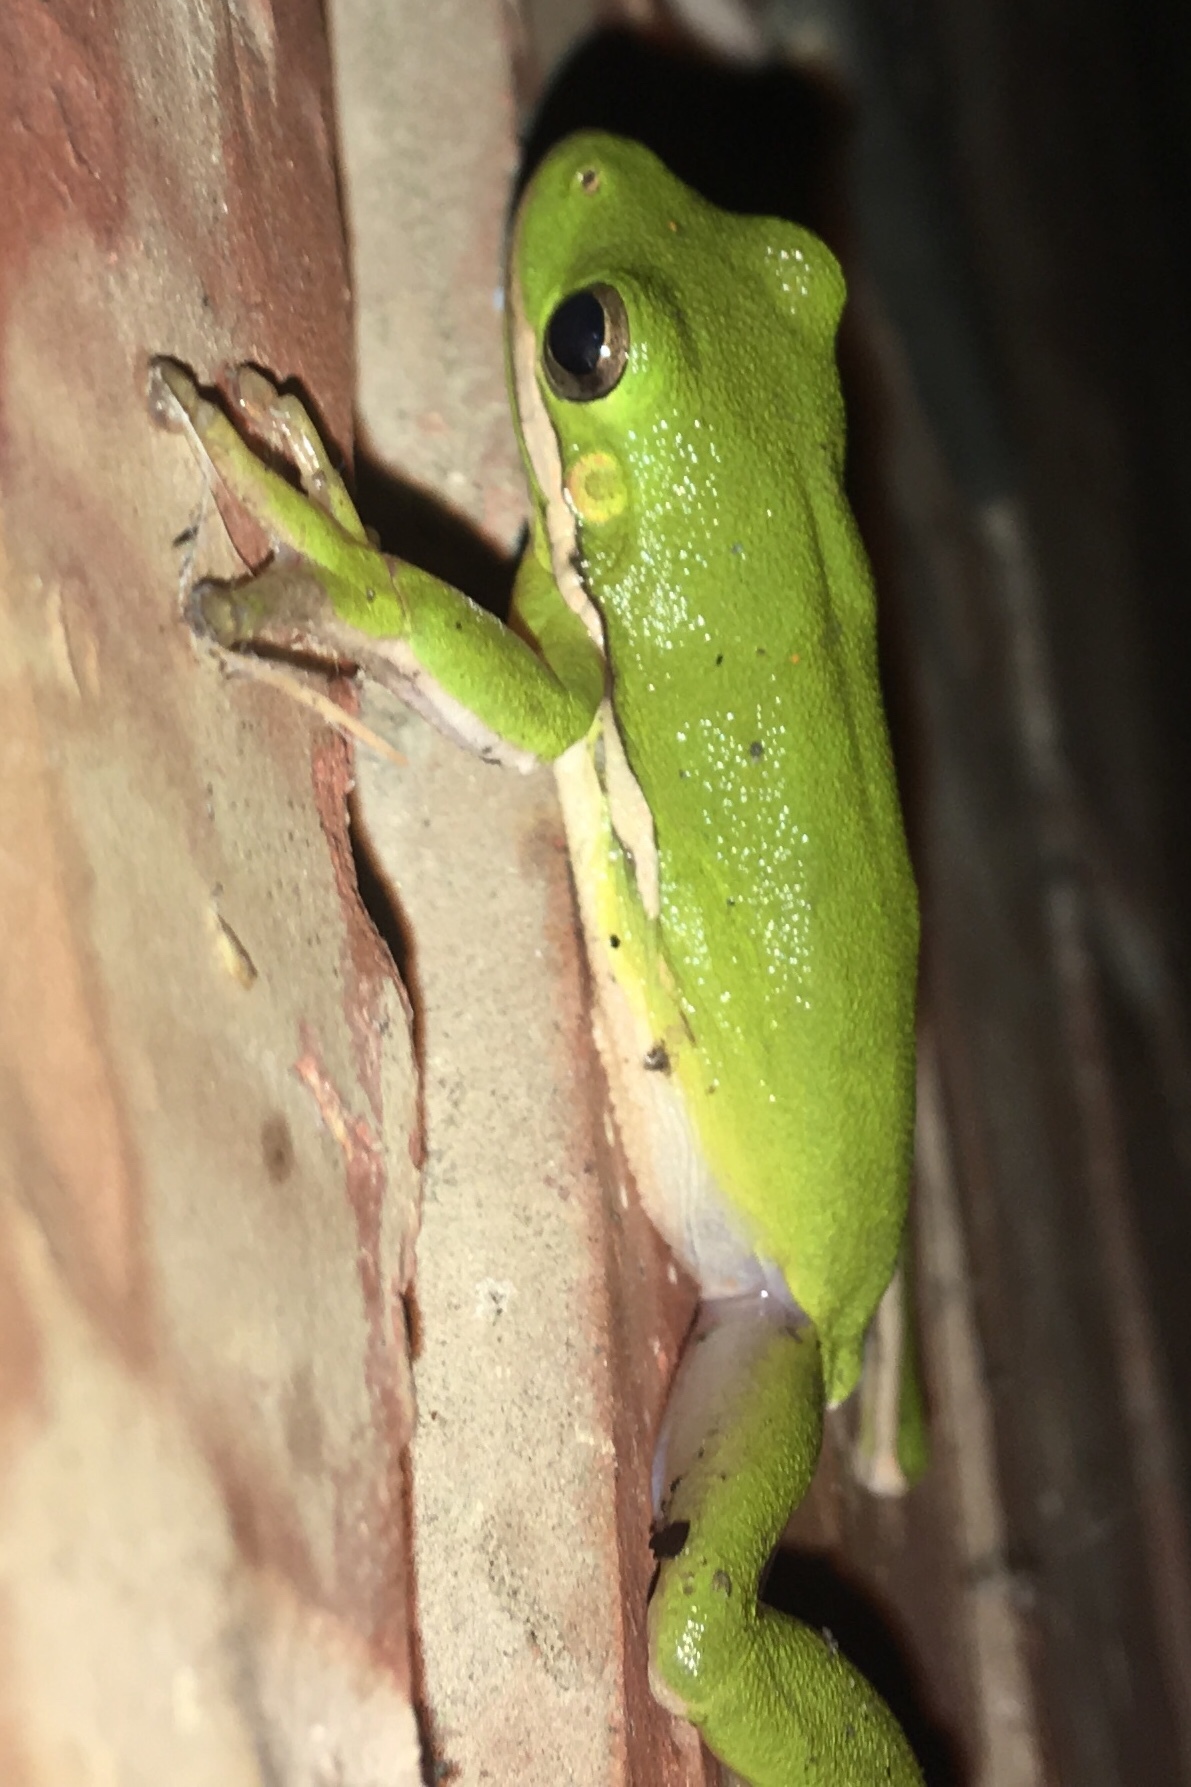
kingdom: Animalia
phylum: Chordata
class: Amphibia
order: Anura
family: Hylidae
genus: Dryophytes
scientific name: Dryophytes cinereus
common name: Green treefrog
